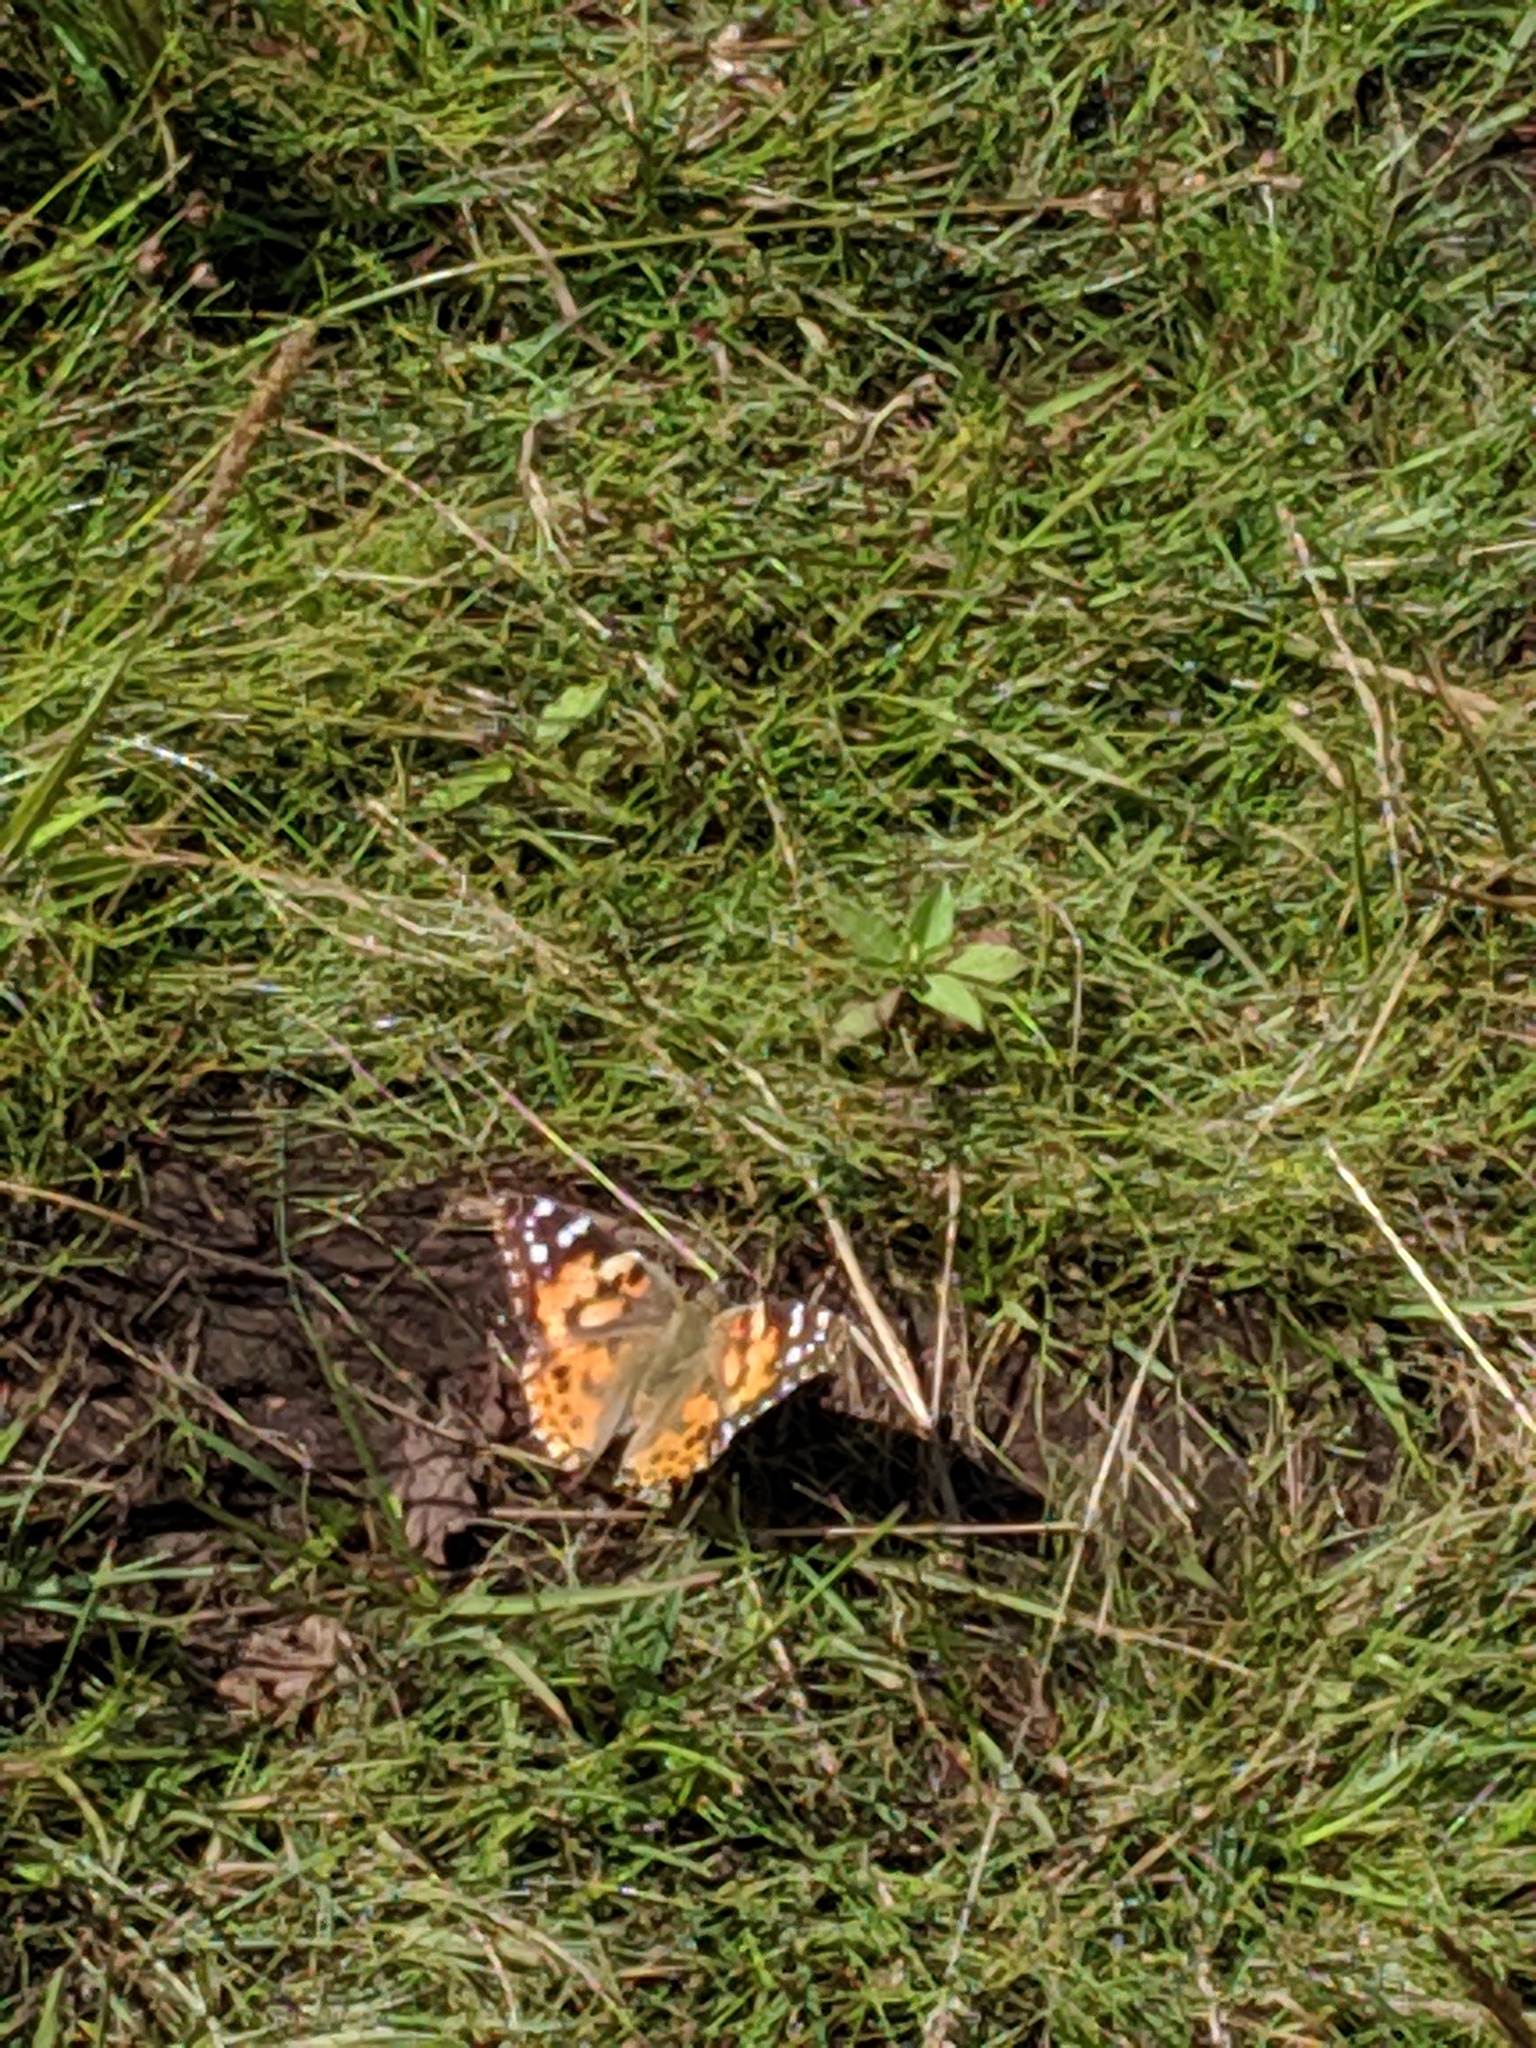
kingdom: Animalia
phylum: Arthropoda
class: Insecta
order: Lepidoptera
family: Nymphalidae
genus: Vanessa
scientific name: Vanessa cardui
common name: Painted lady
